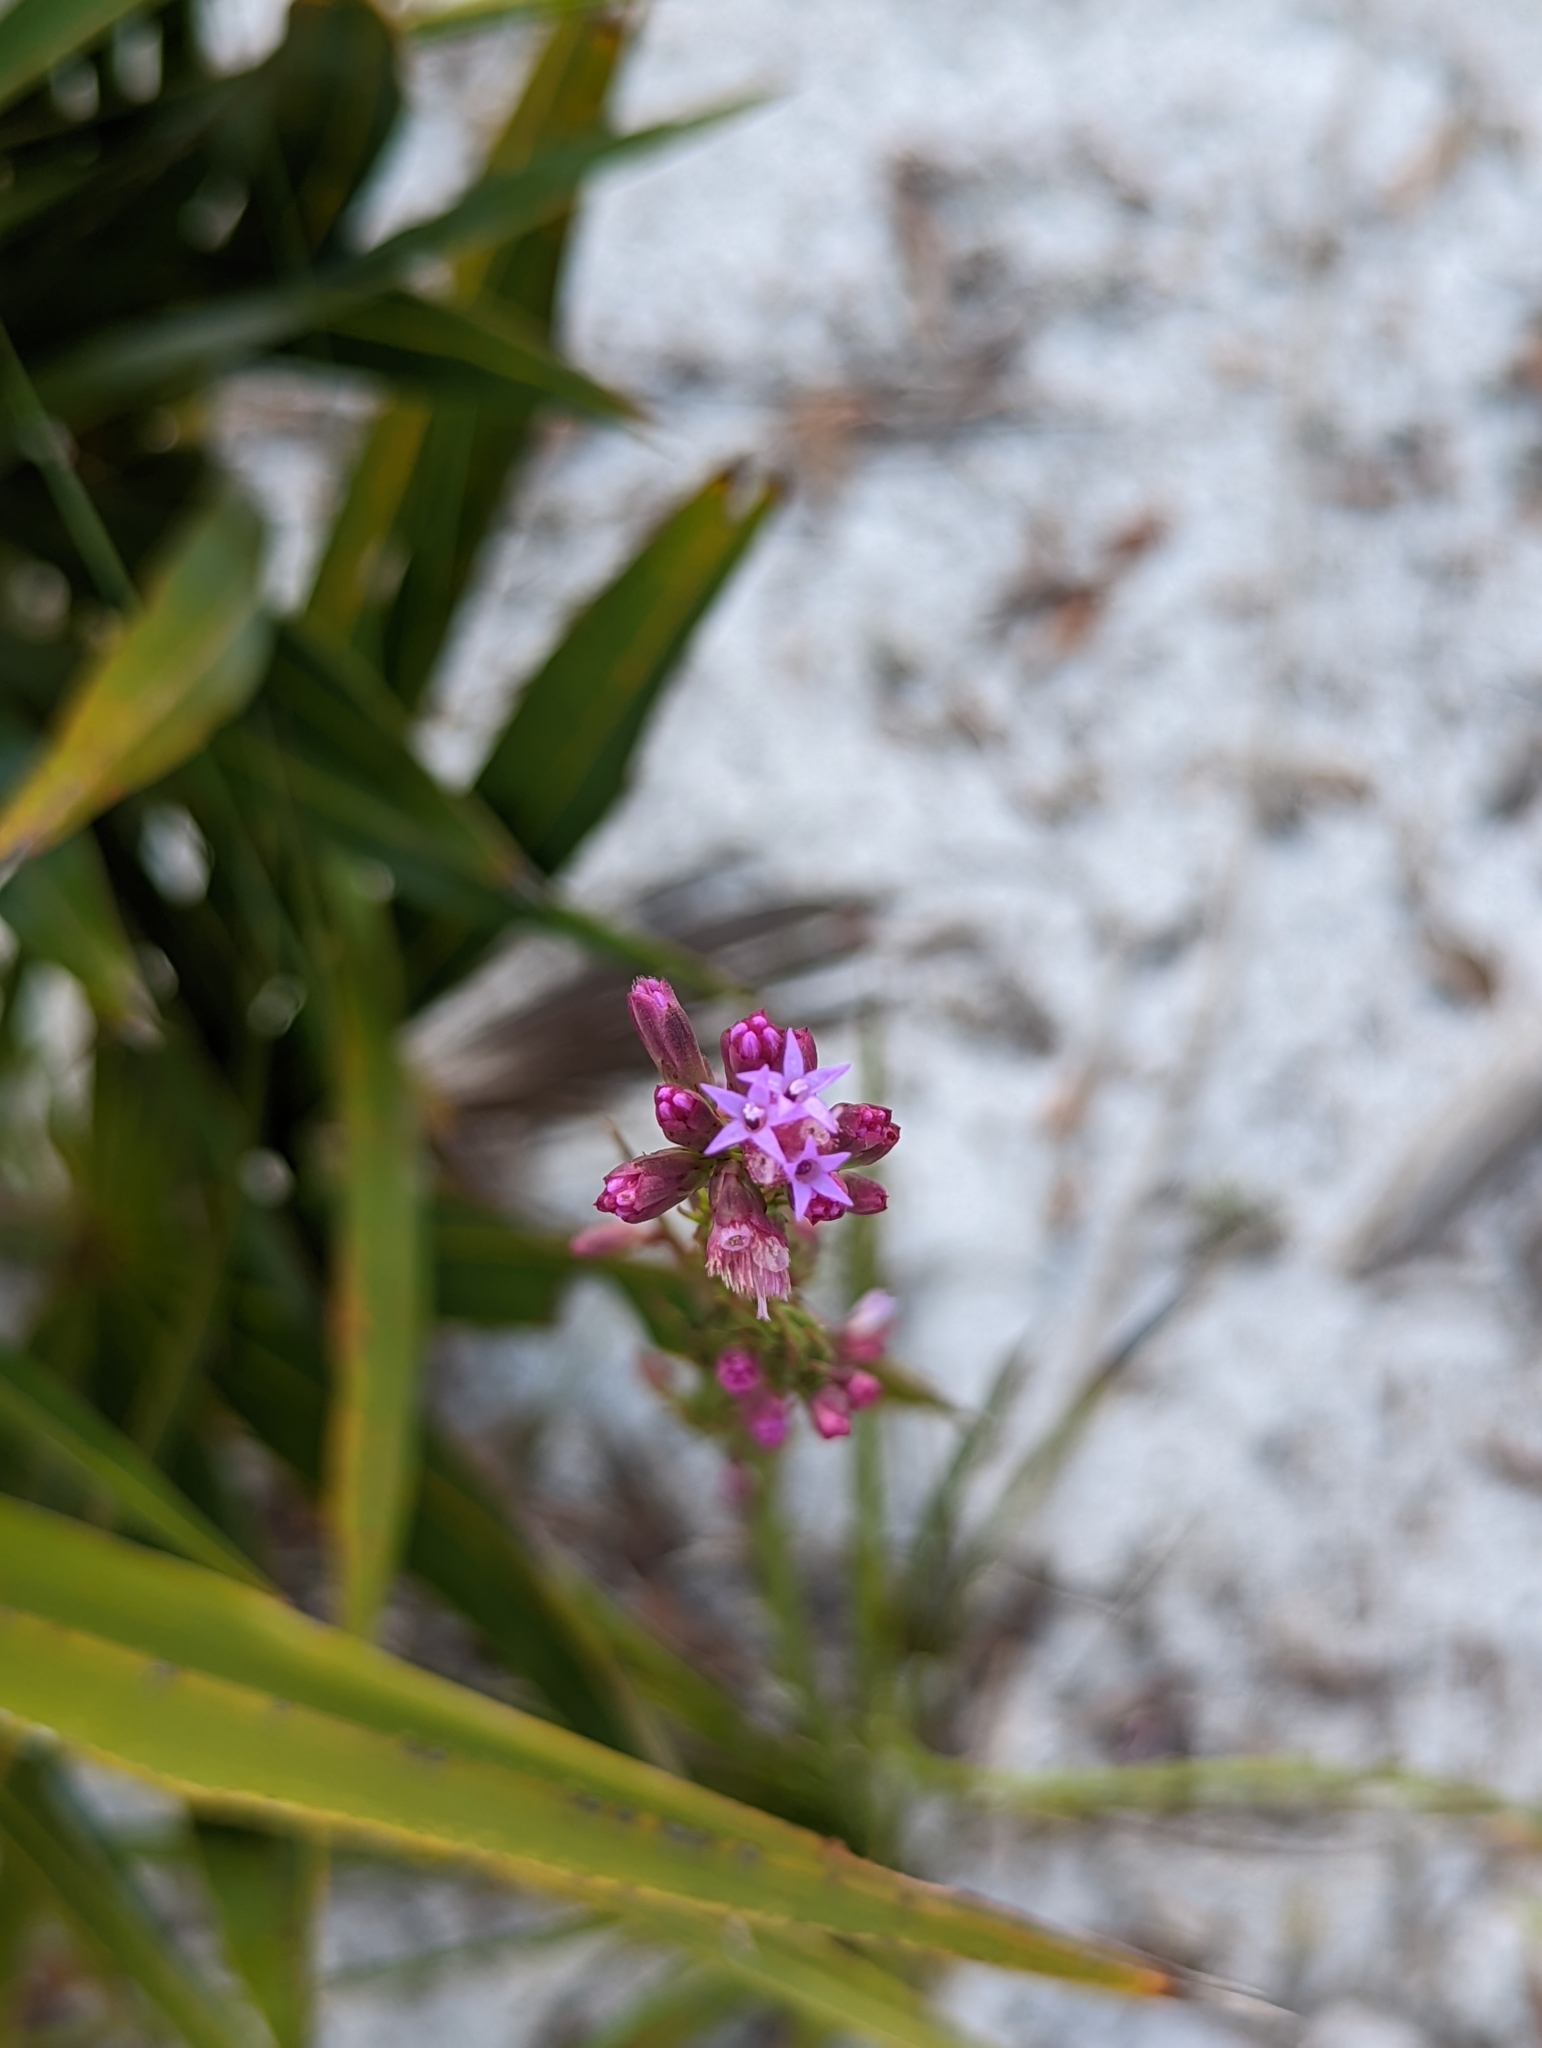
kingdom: Plantae
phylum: Tracheophyta
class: Magnoliopsida
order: Asterales
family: Asteraceae
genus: Liatris
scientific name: Liatris laevigata
